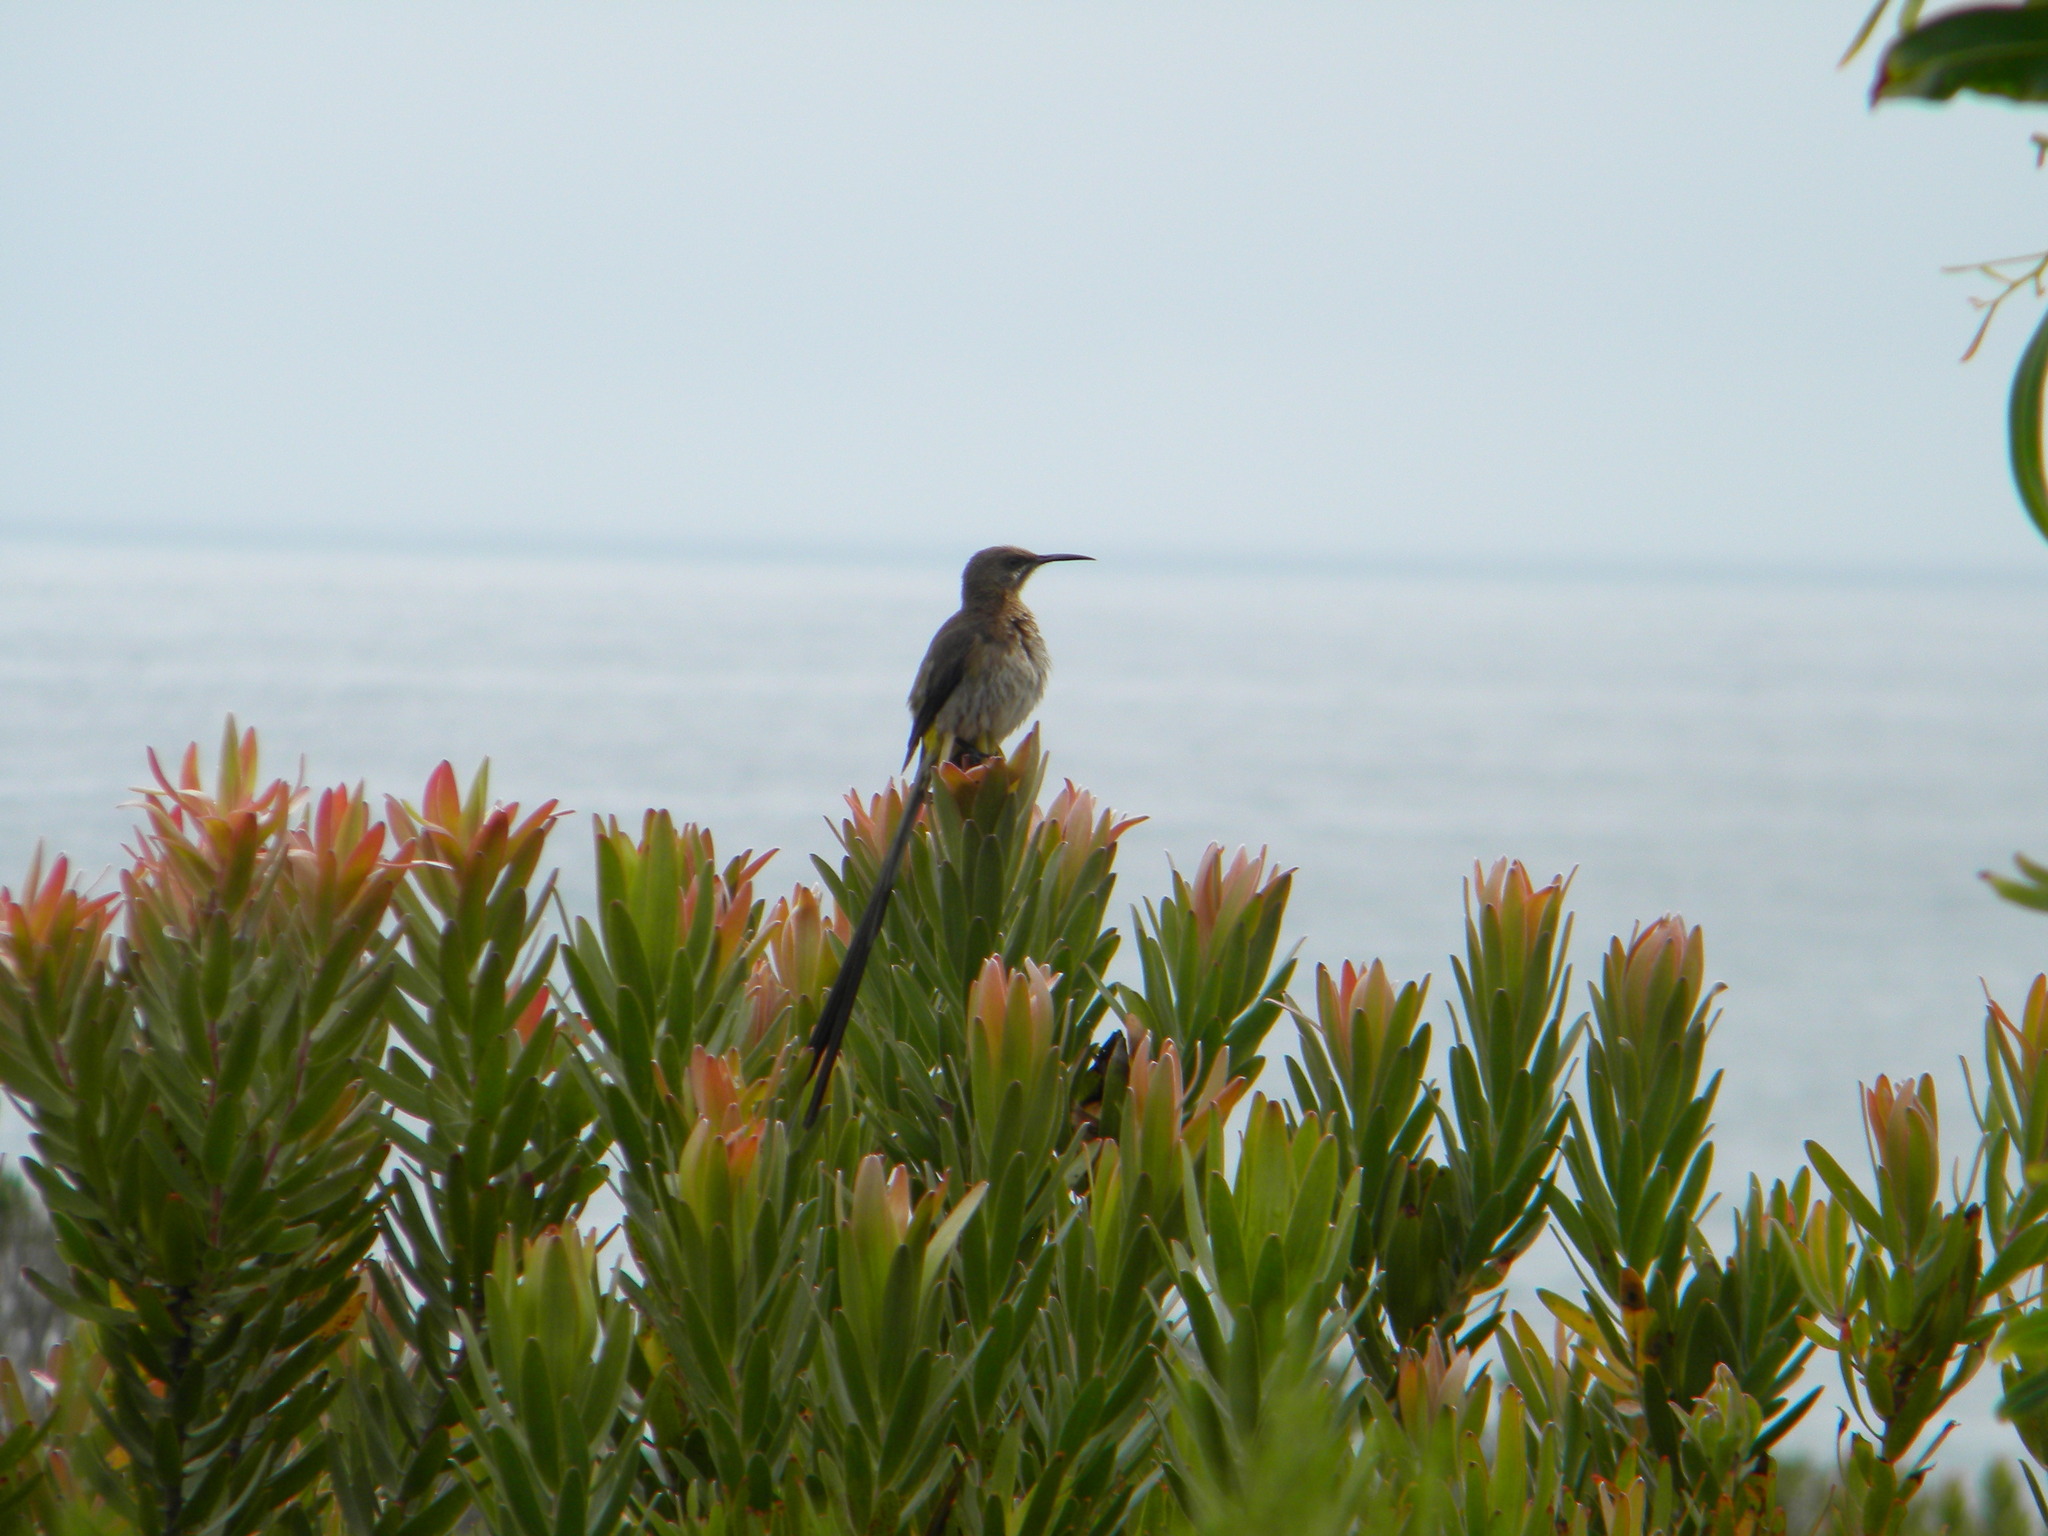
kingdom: Animalia
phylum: Chordata
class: Aves
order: Passeriformes
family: Promeropidae
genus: Promerops
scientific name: Promerops cafer
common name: Cape sugarbird
